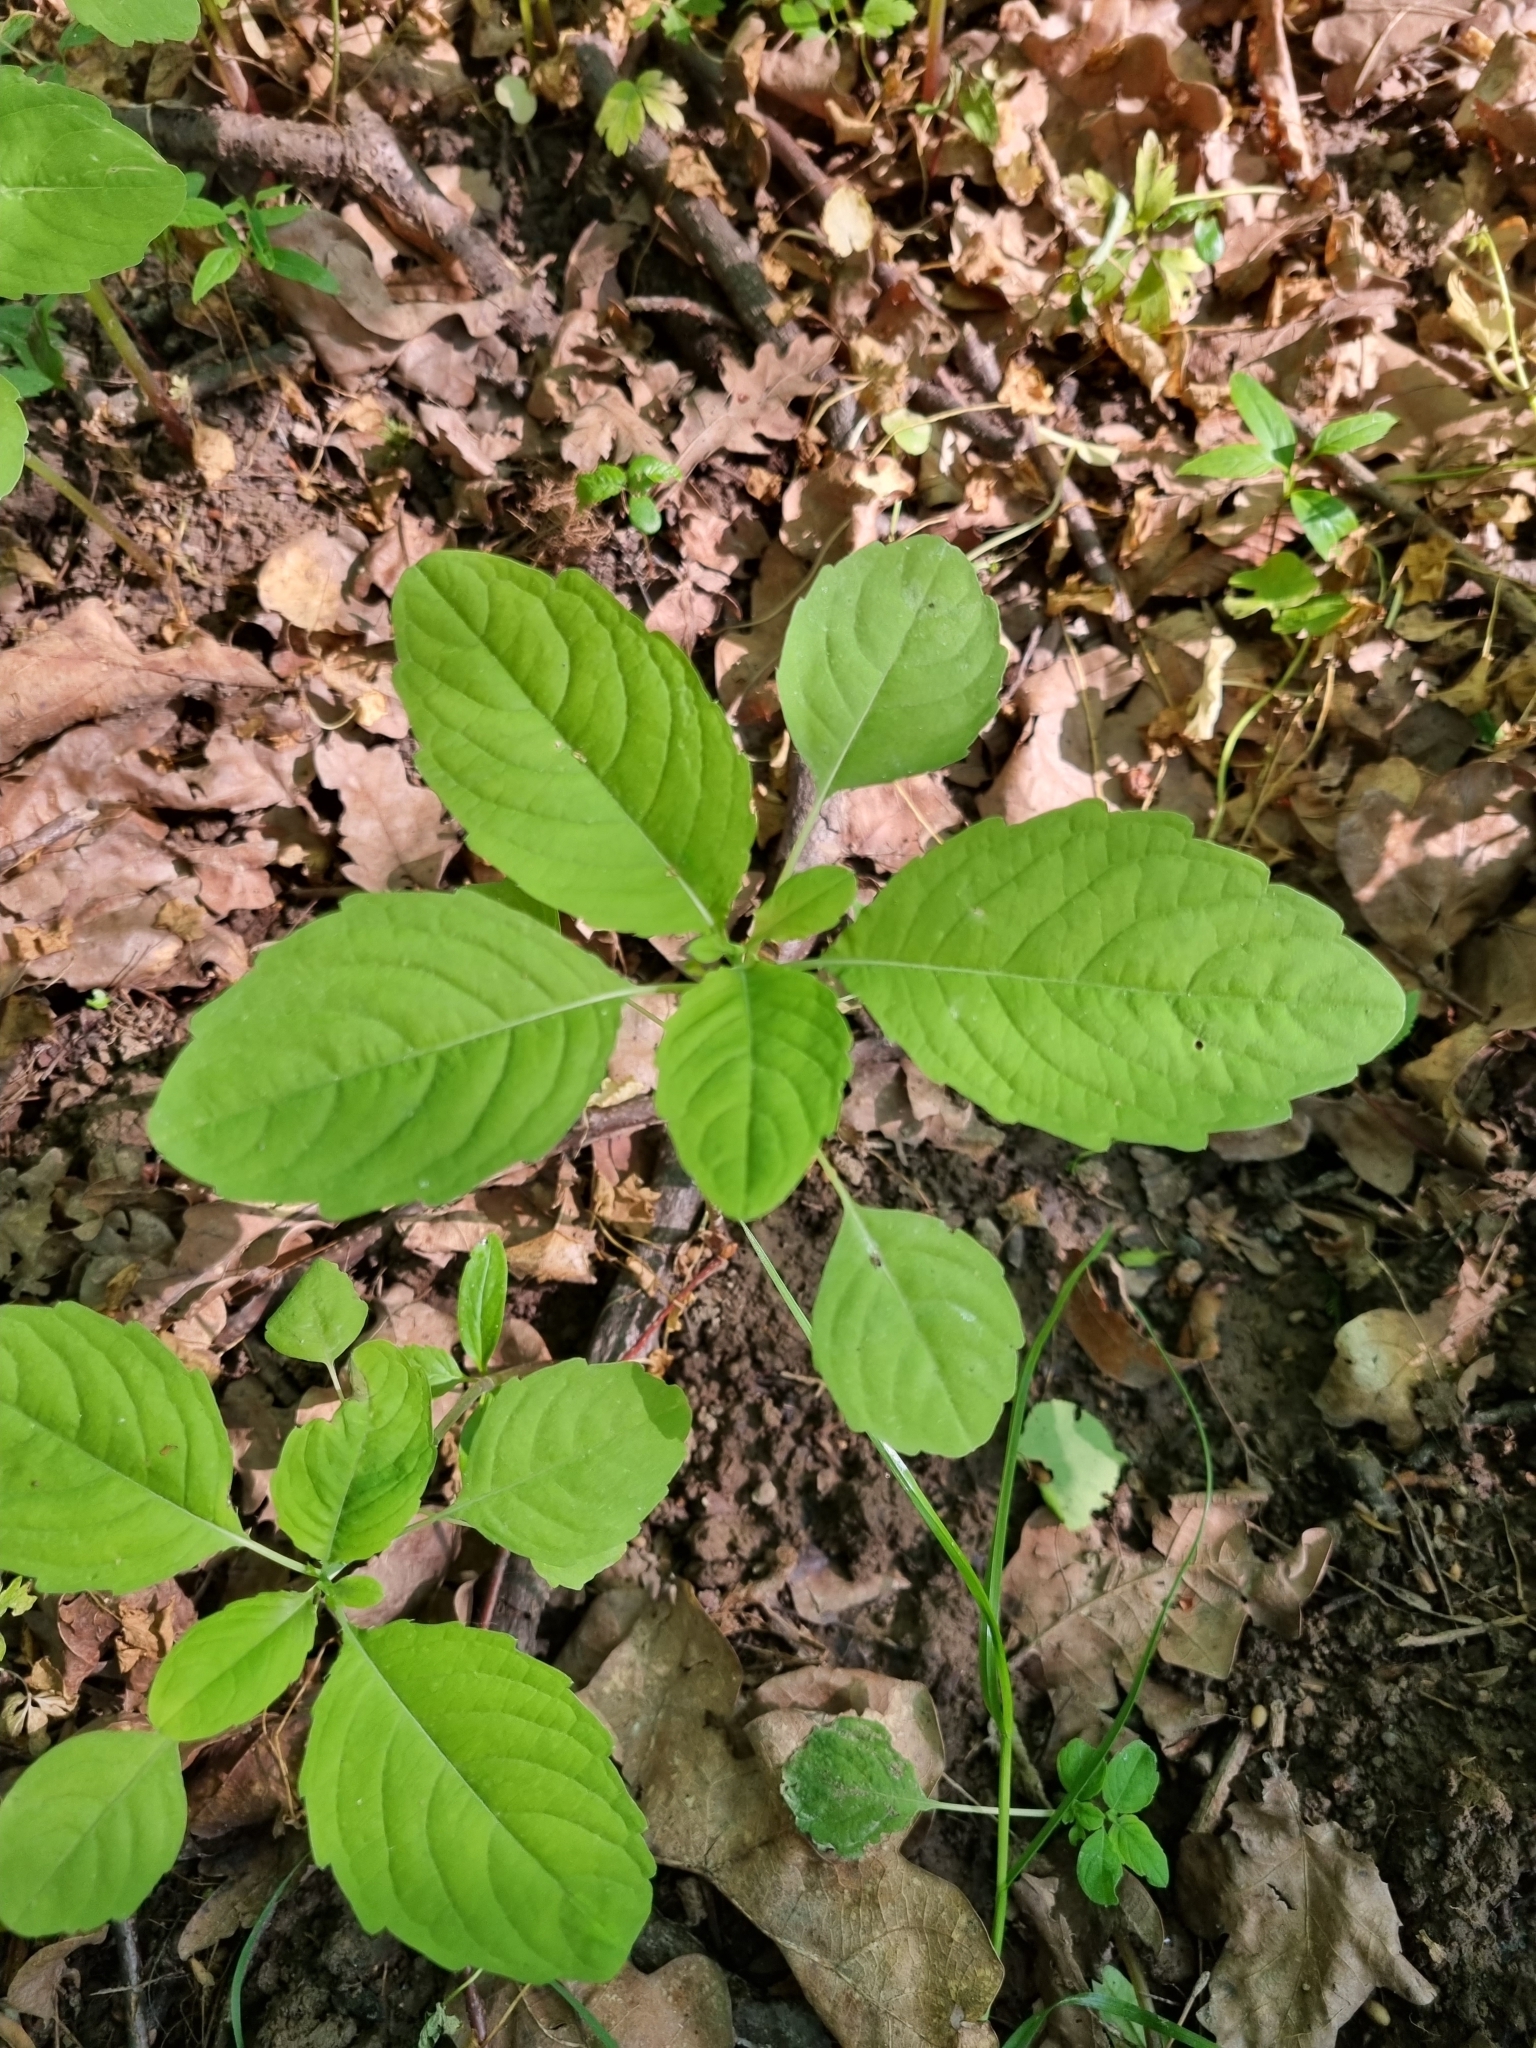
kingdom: Plantae
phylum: Tracheophyta
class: Magnoliopsida
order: Ericales
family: Balsaminaceae
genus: Impatiens
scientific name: Impatiens noli-tangere
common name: Touch-me-not balsam
